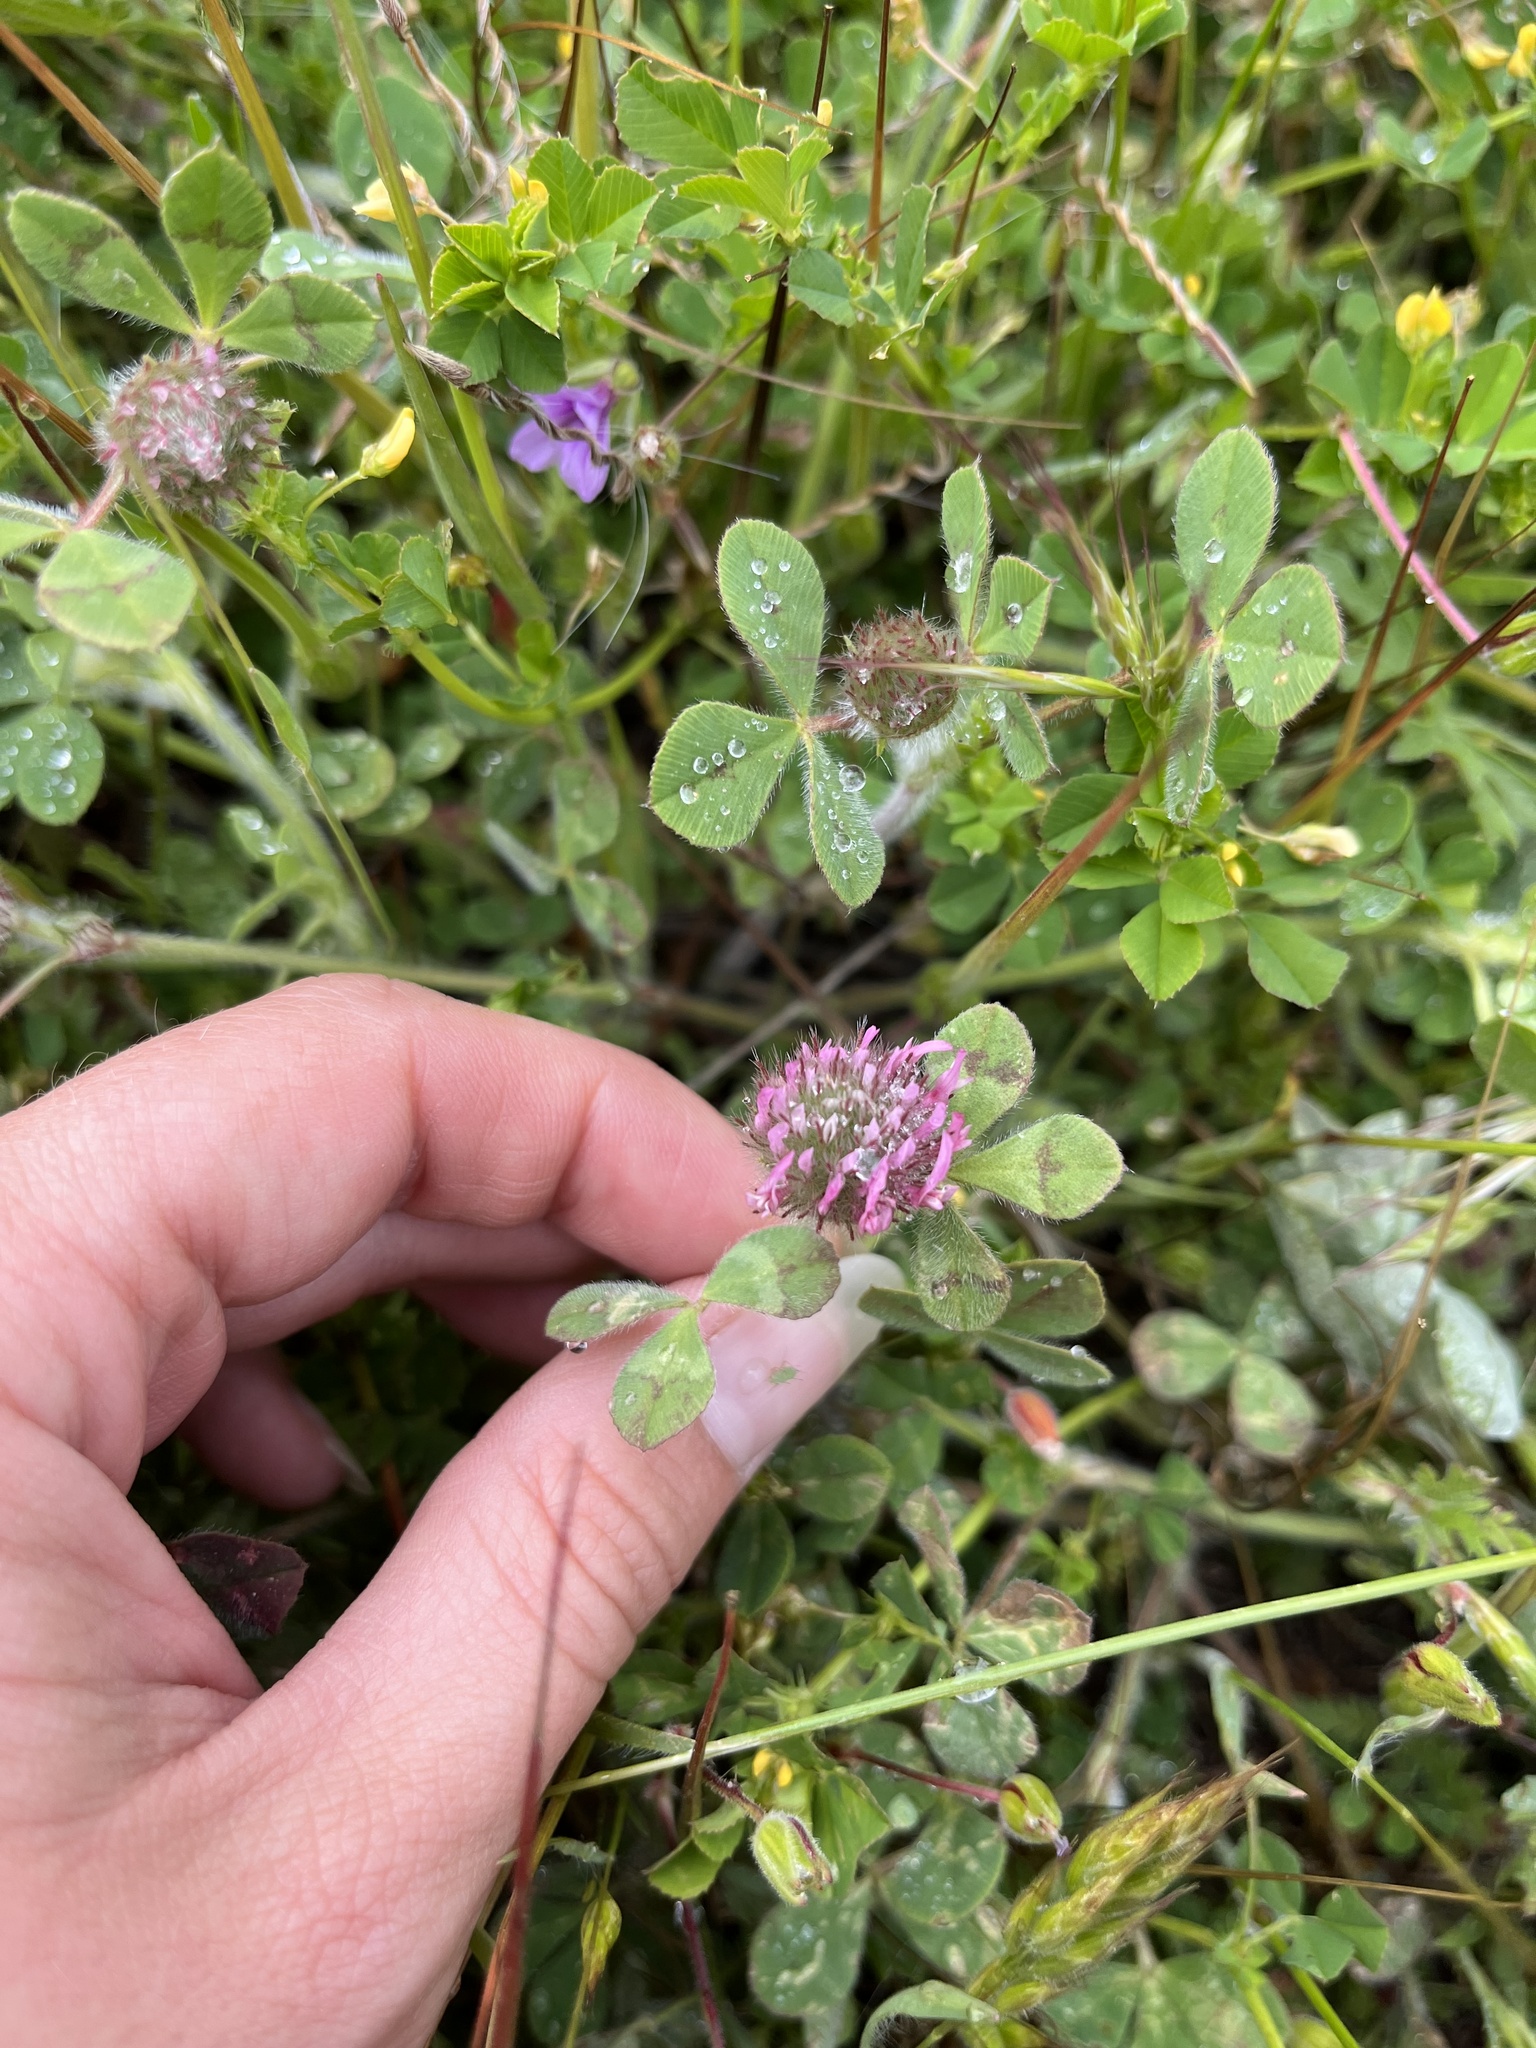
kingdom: Plantae
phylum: Tracheophyta
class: Magnoliopsida
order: Fabales
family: Fabaceae
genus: Trifolium
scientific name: Trifolium hirtum
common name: Rose clover
